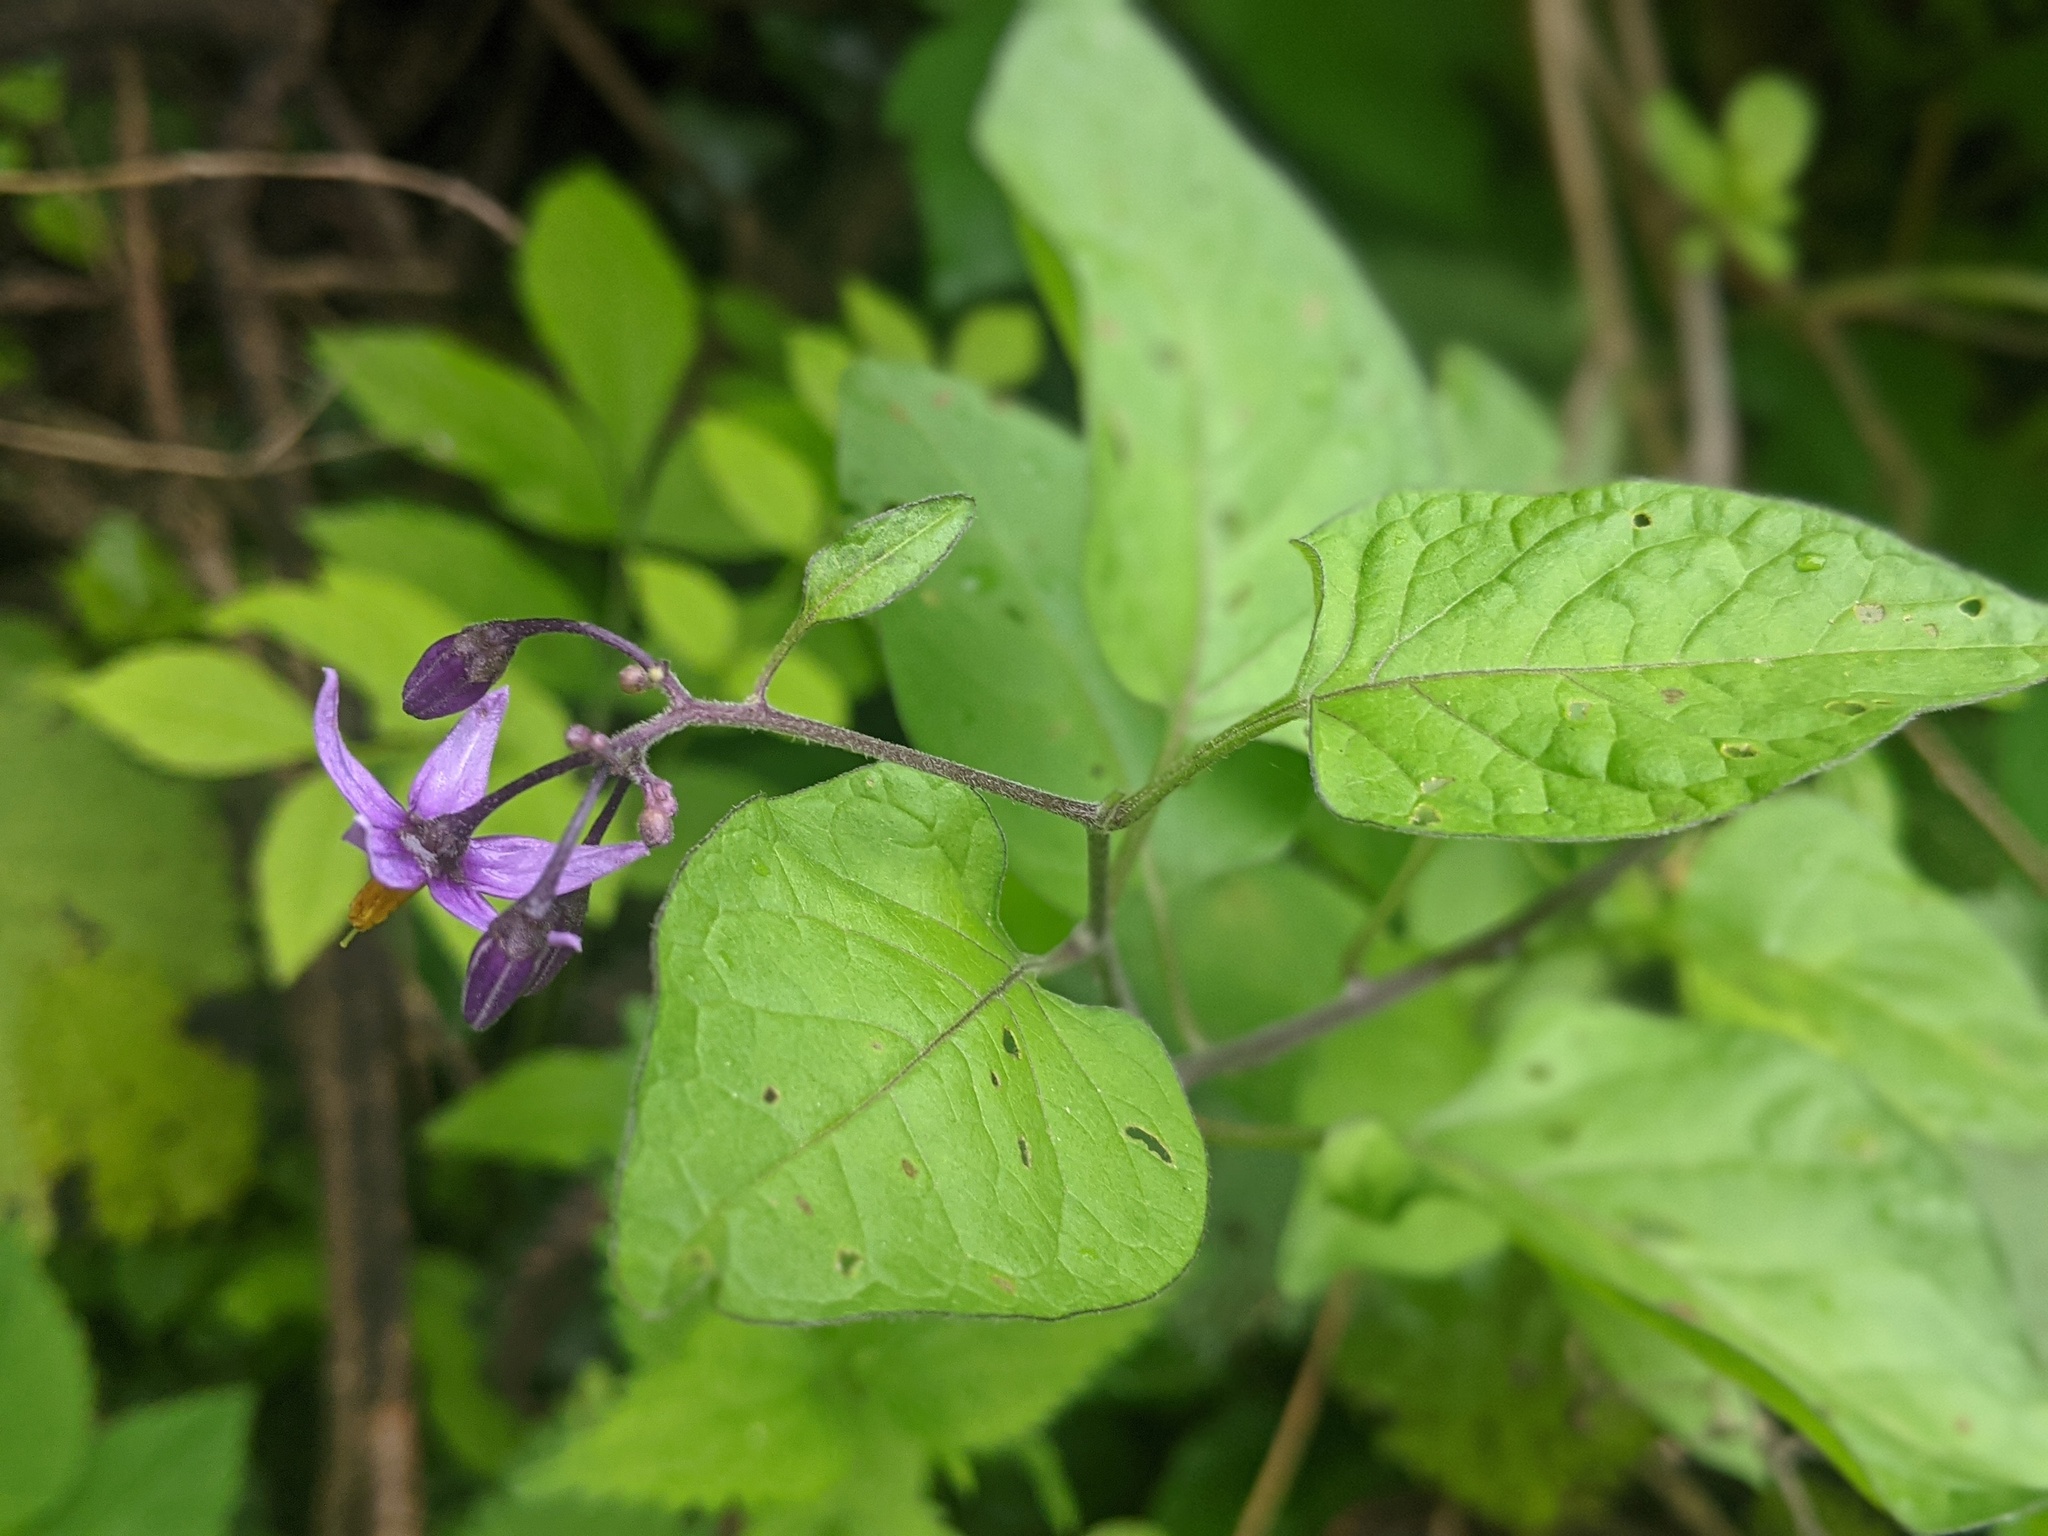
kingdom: Plantae
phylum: Tracheophyta
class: Magnoliopsida
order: Solanales
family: Solanaceae
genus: Solanum
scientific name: Solanum dulcamara
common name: Climbing nightshade
